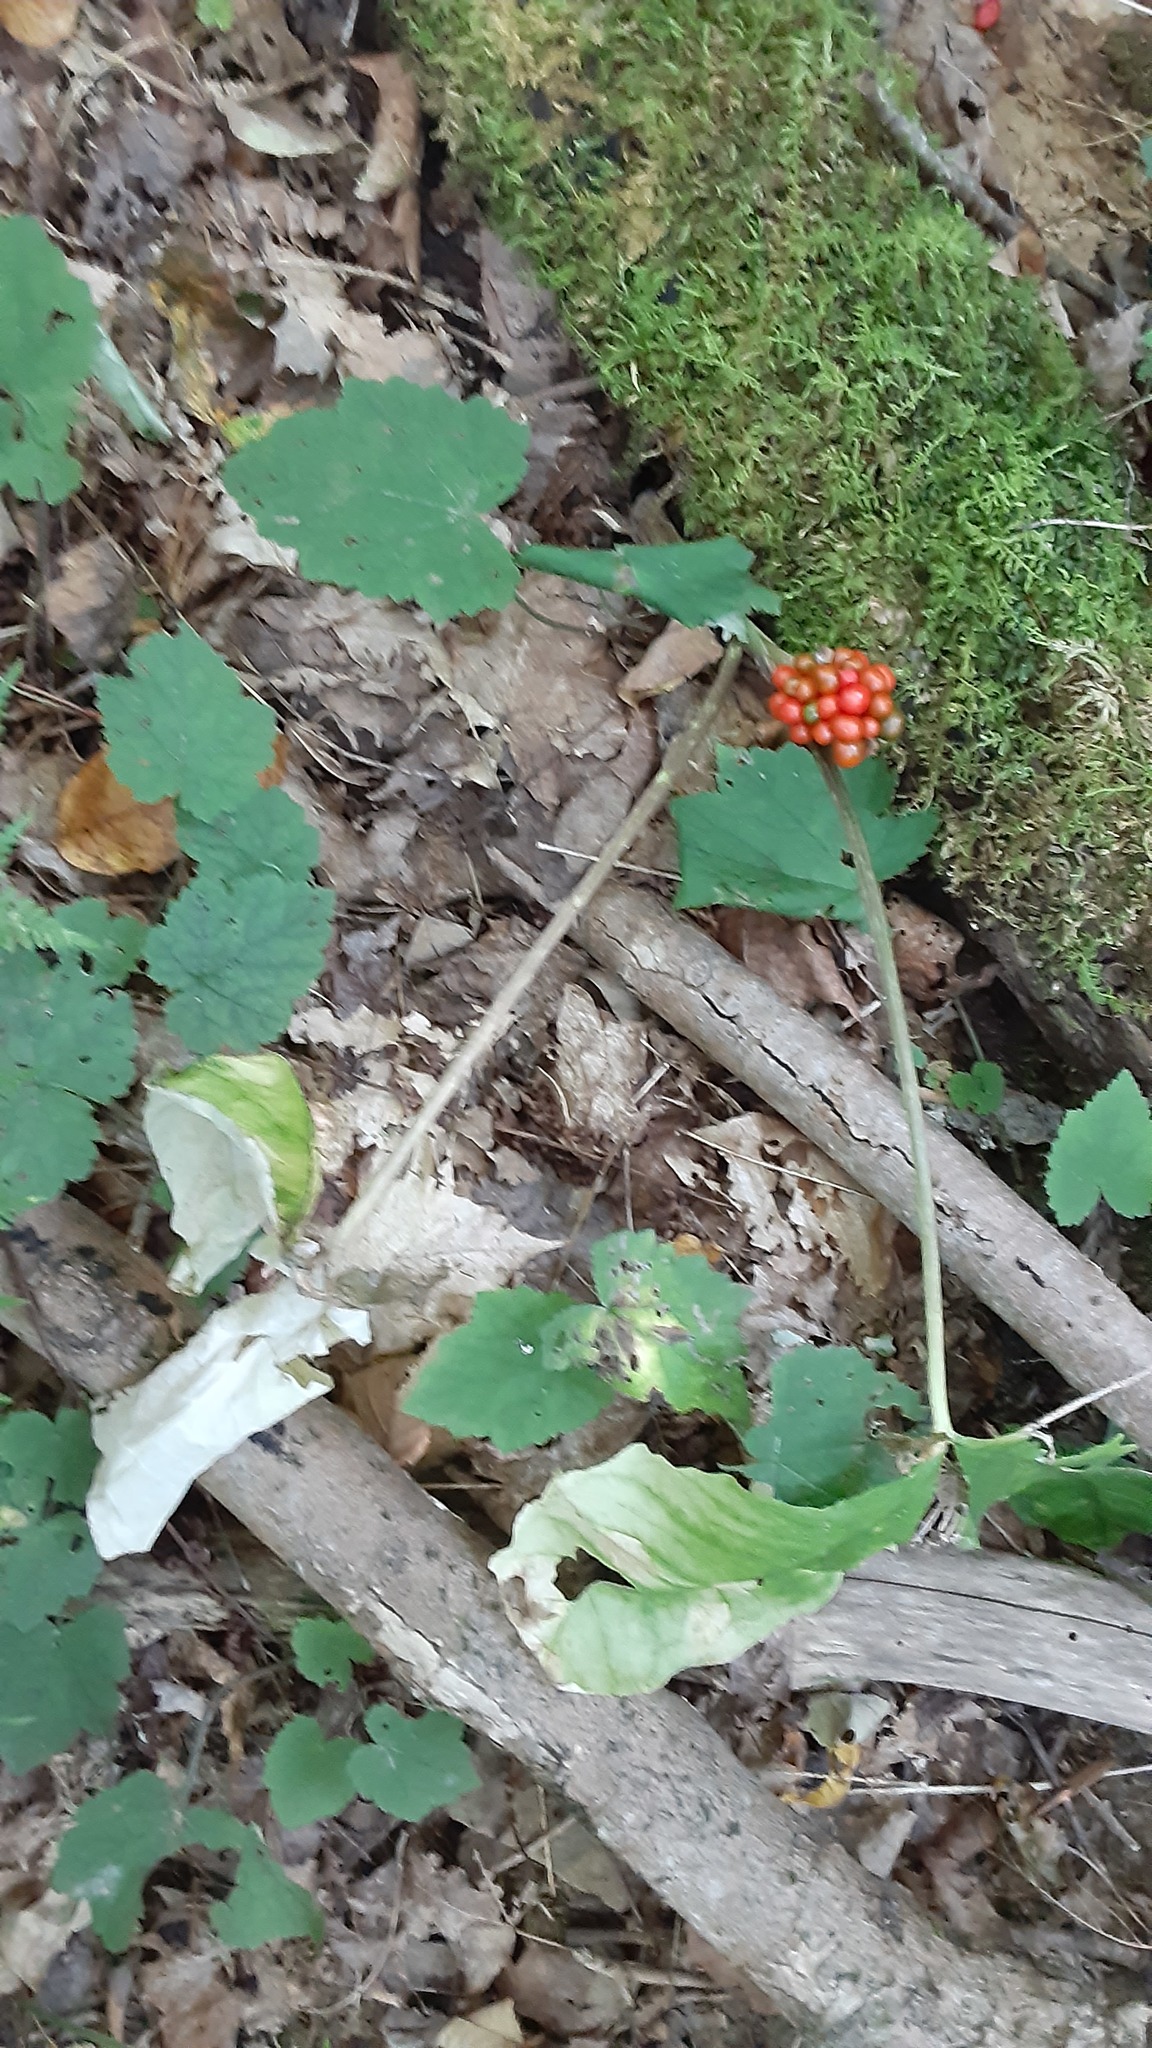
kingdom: Plantae
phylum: Tracheophyta
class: Liliopsida
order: Alismatales
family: Araceae
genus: Arisaema
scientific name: Arisaema triphyllum
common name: Jack-in-the-pulpit
